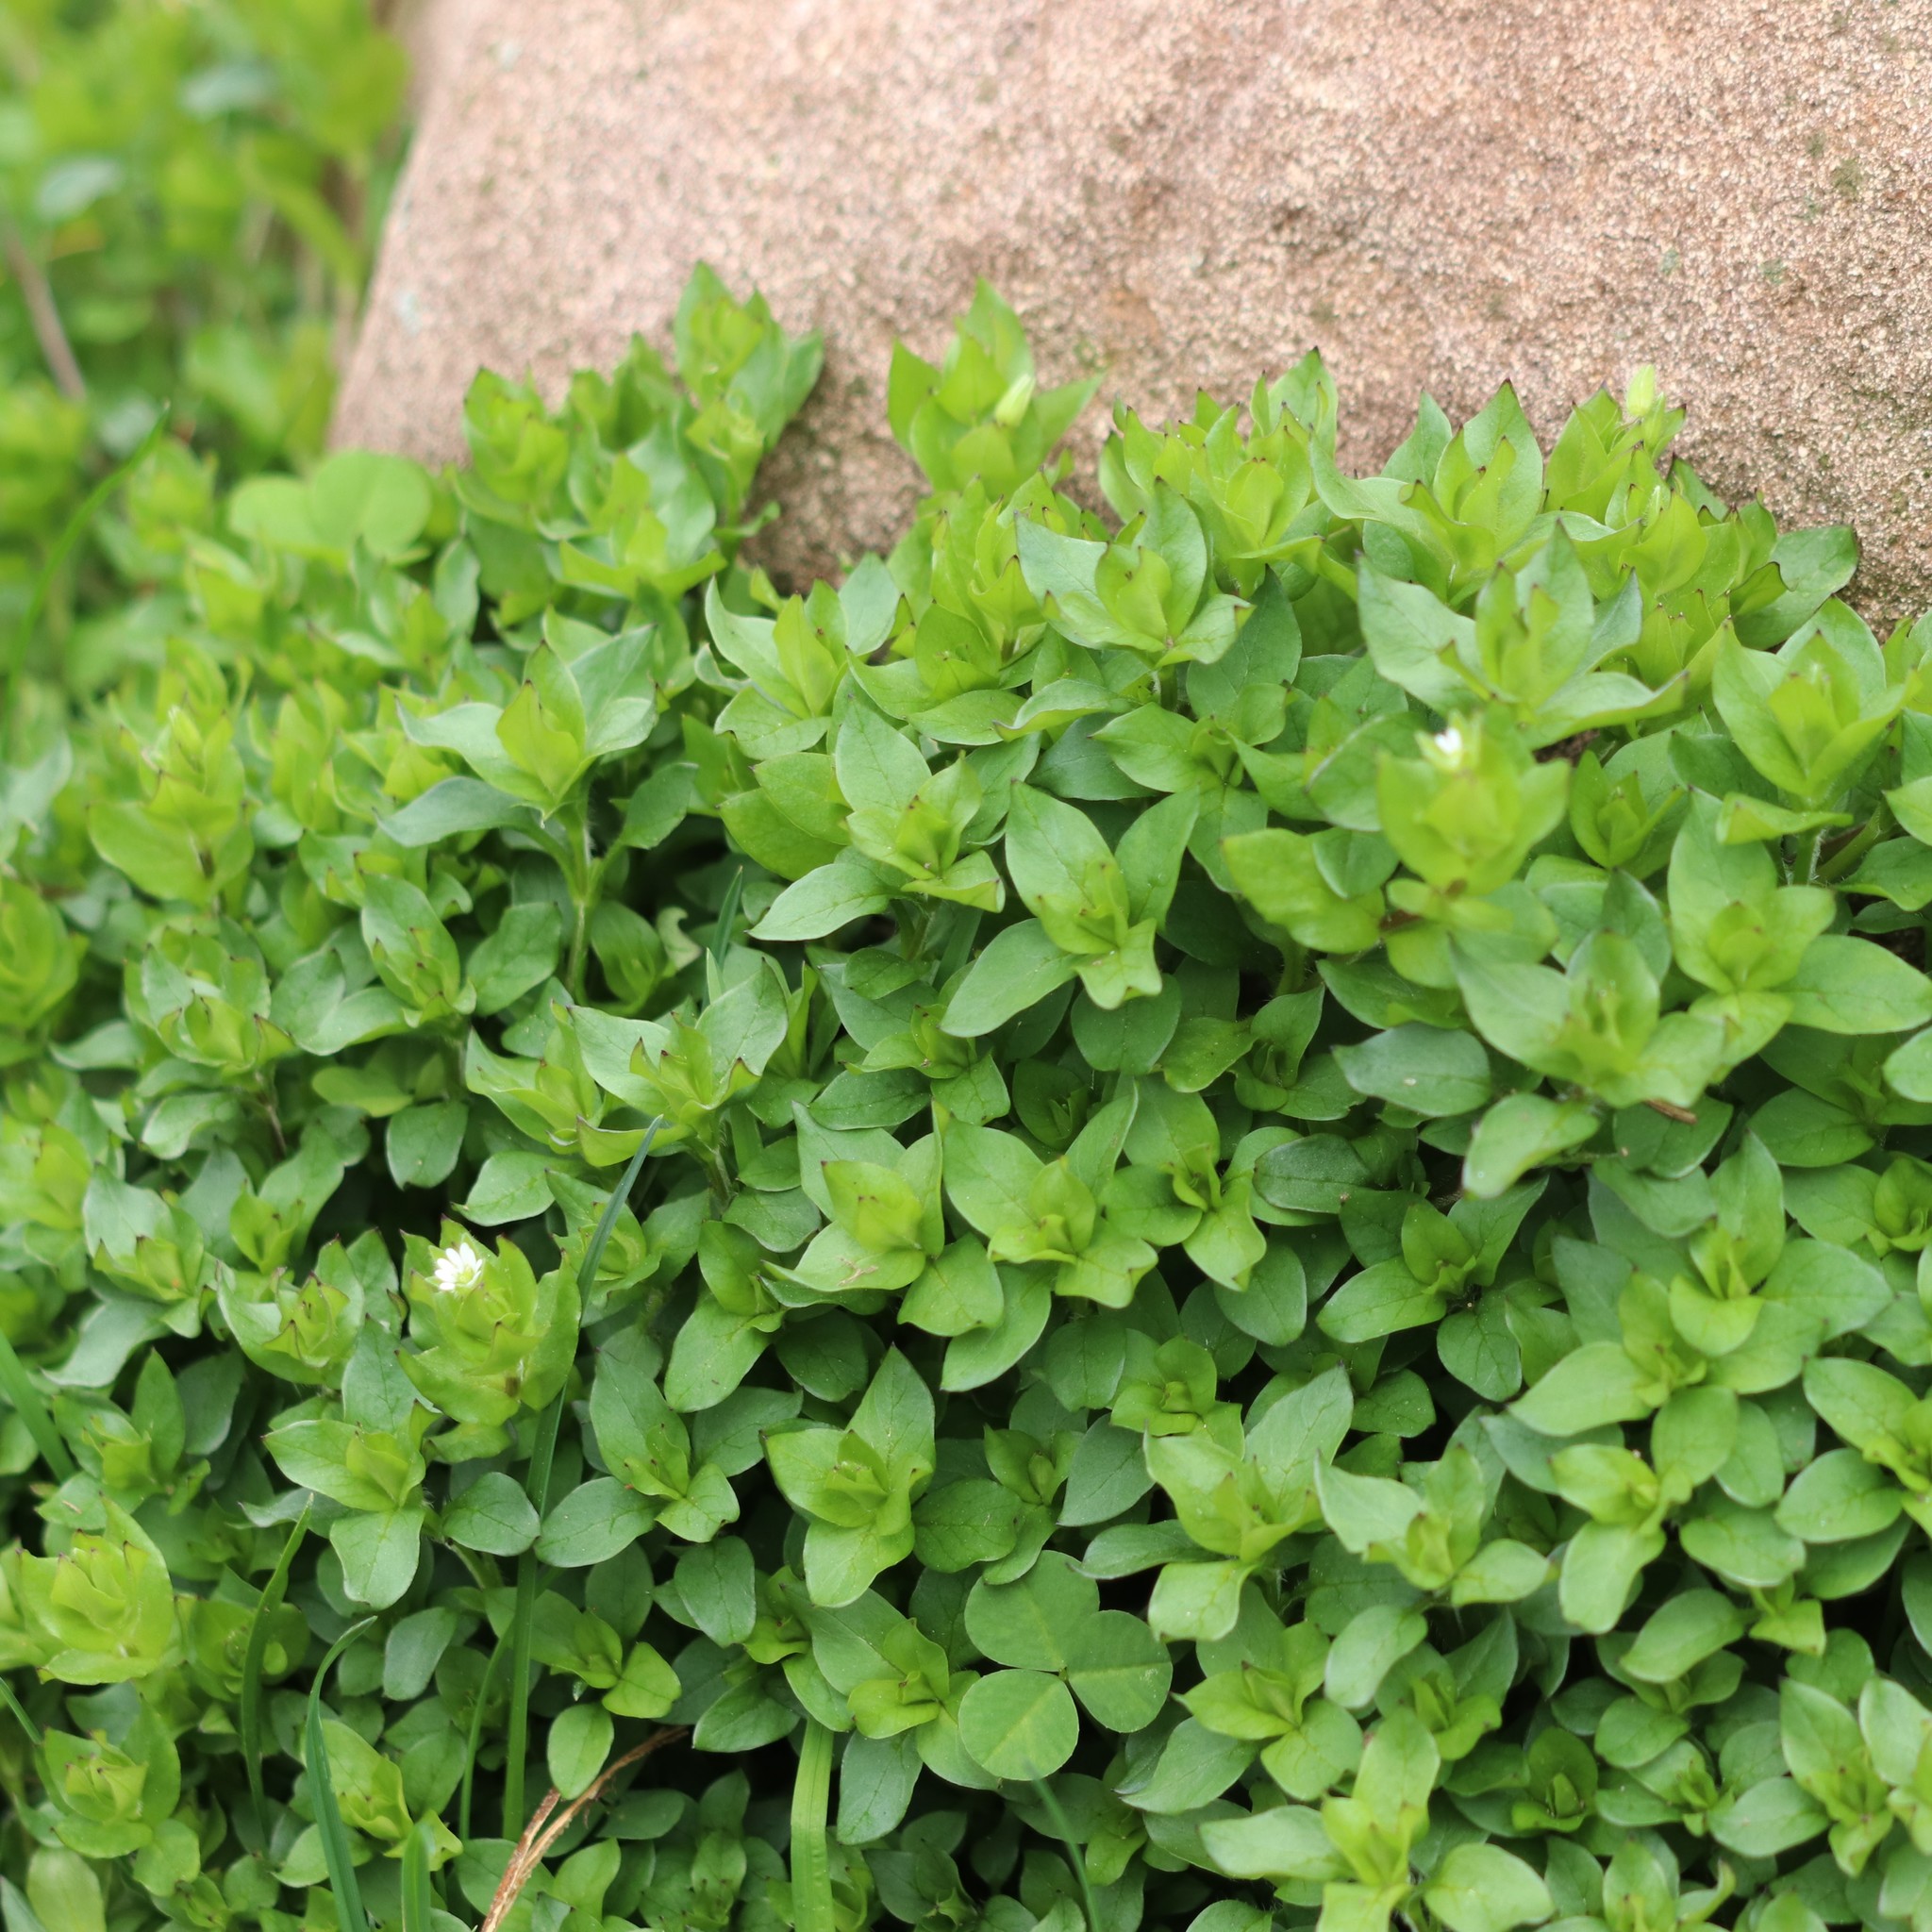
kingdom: Plantae
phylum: Tracheophyta
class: Magnoliopsida
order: Caryophyllales
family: Caryophyllaceae
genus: Stellaria
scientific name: Stellaria media
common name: Common chickweed
